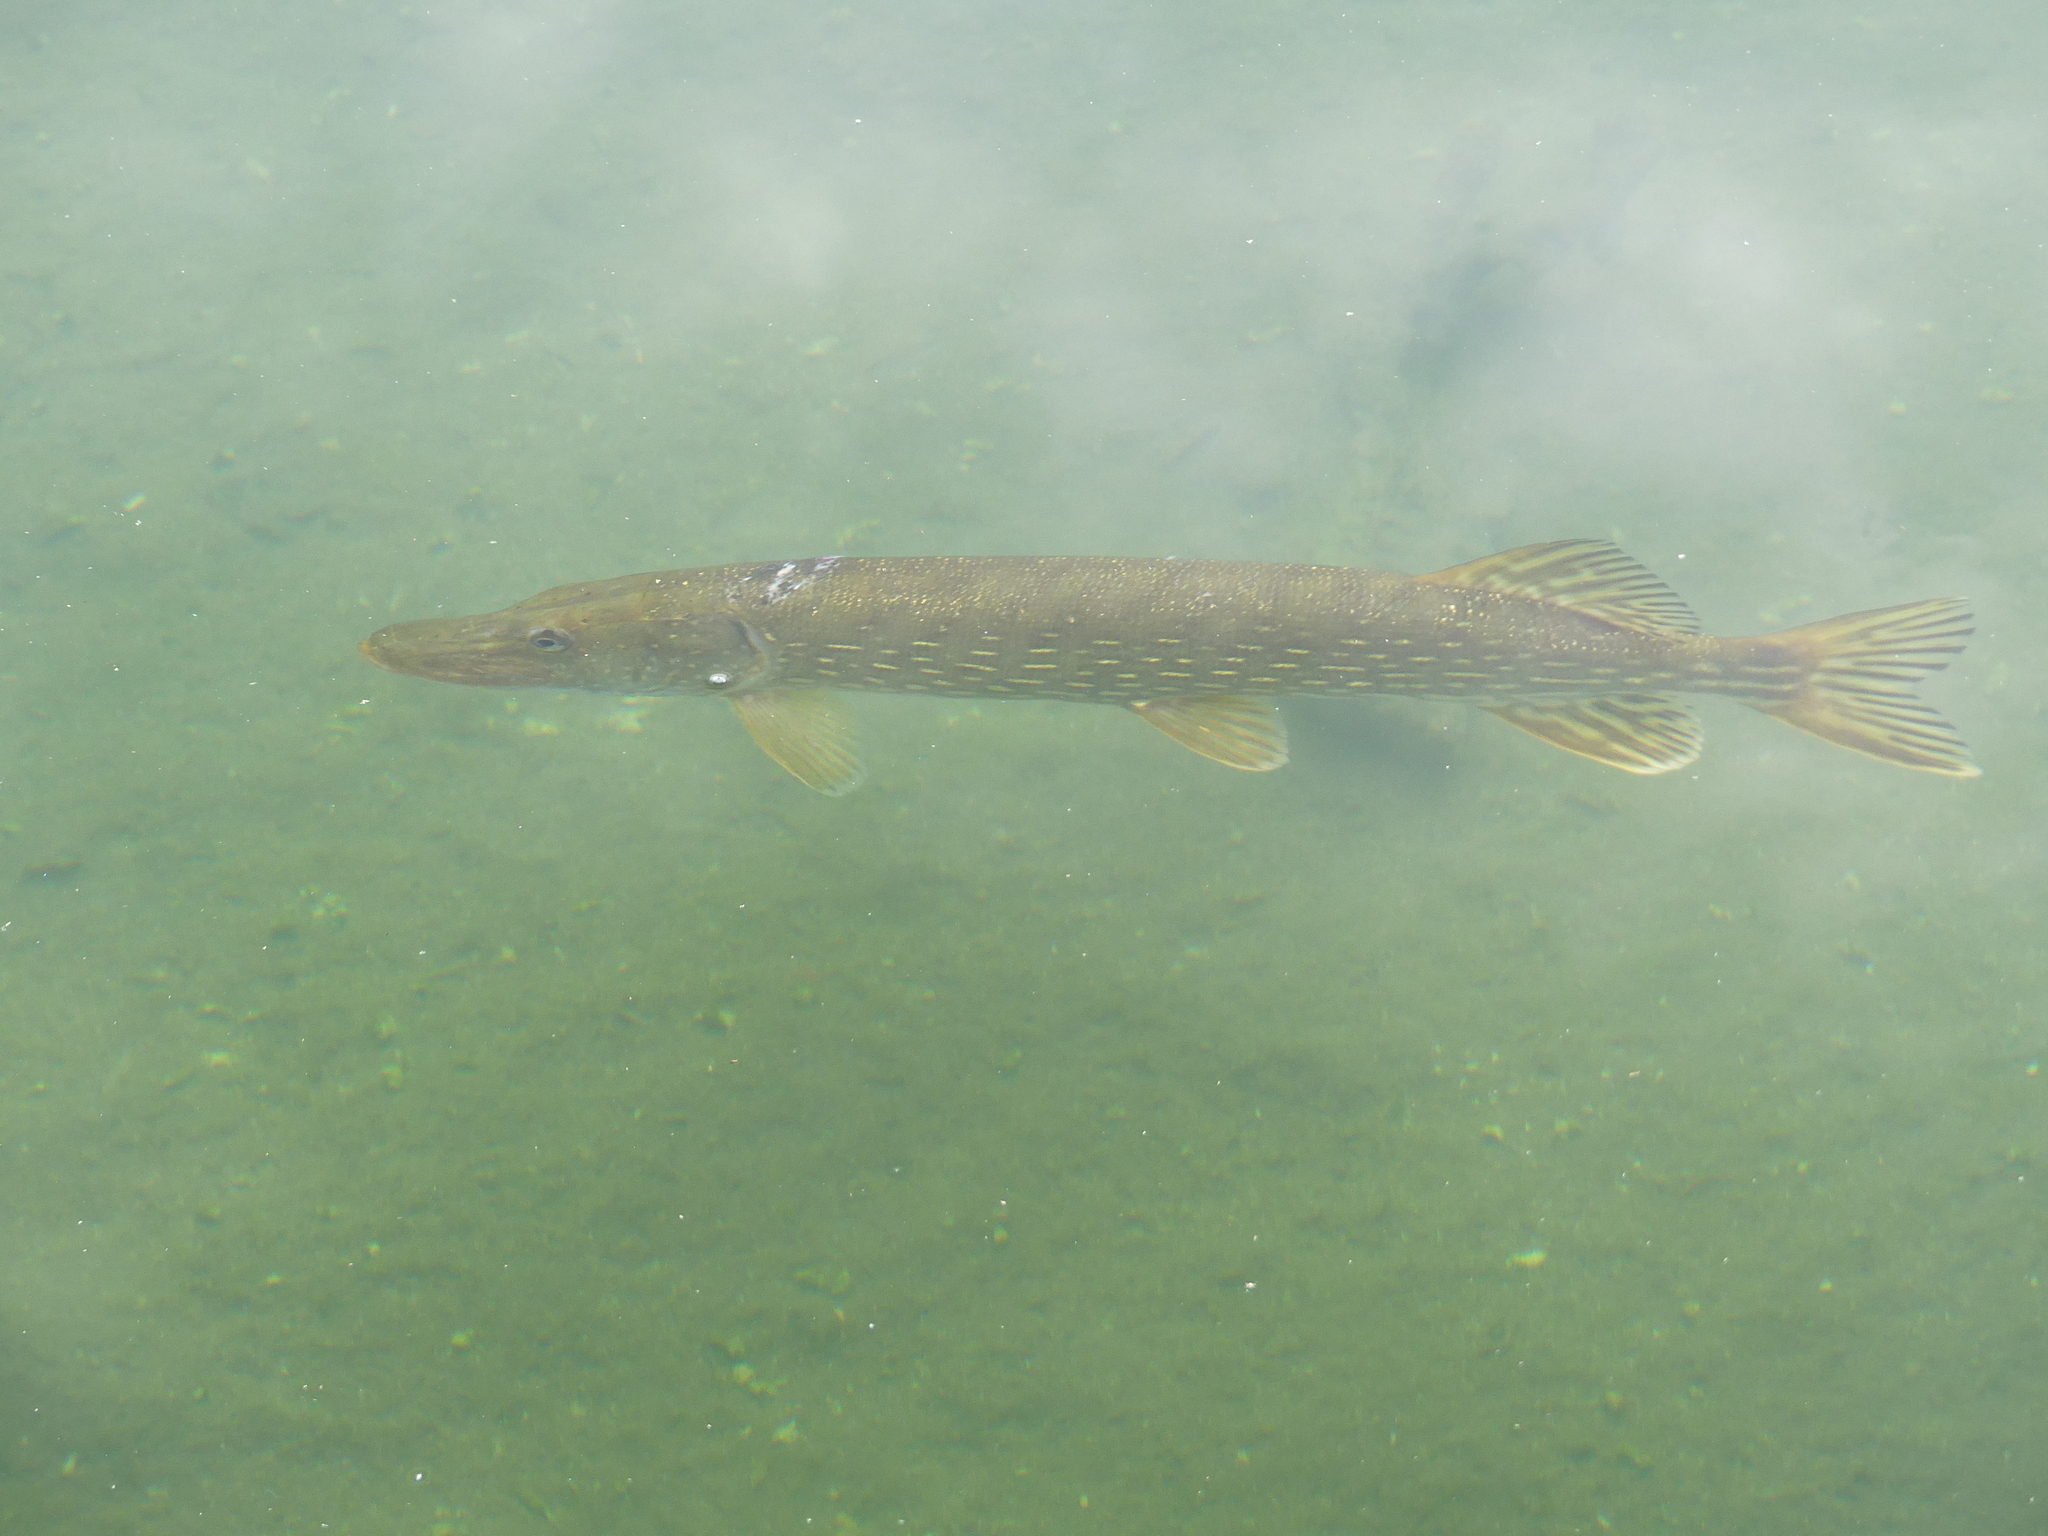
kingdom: Animalia
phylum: Chordata
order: Esociformes
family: Esocidae
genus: Esox
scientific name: Esox lucius
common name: Northern pike
